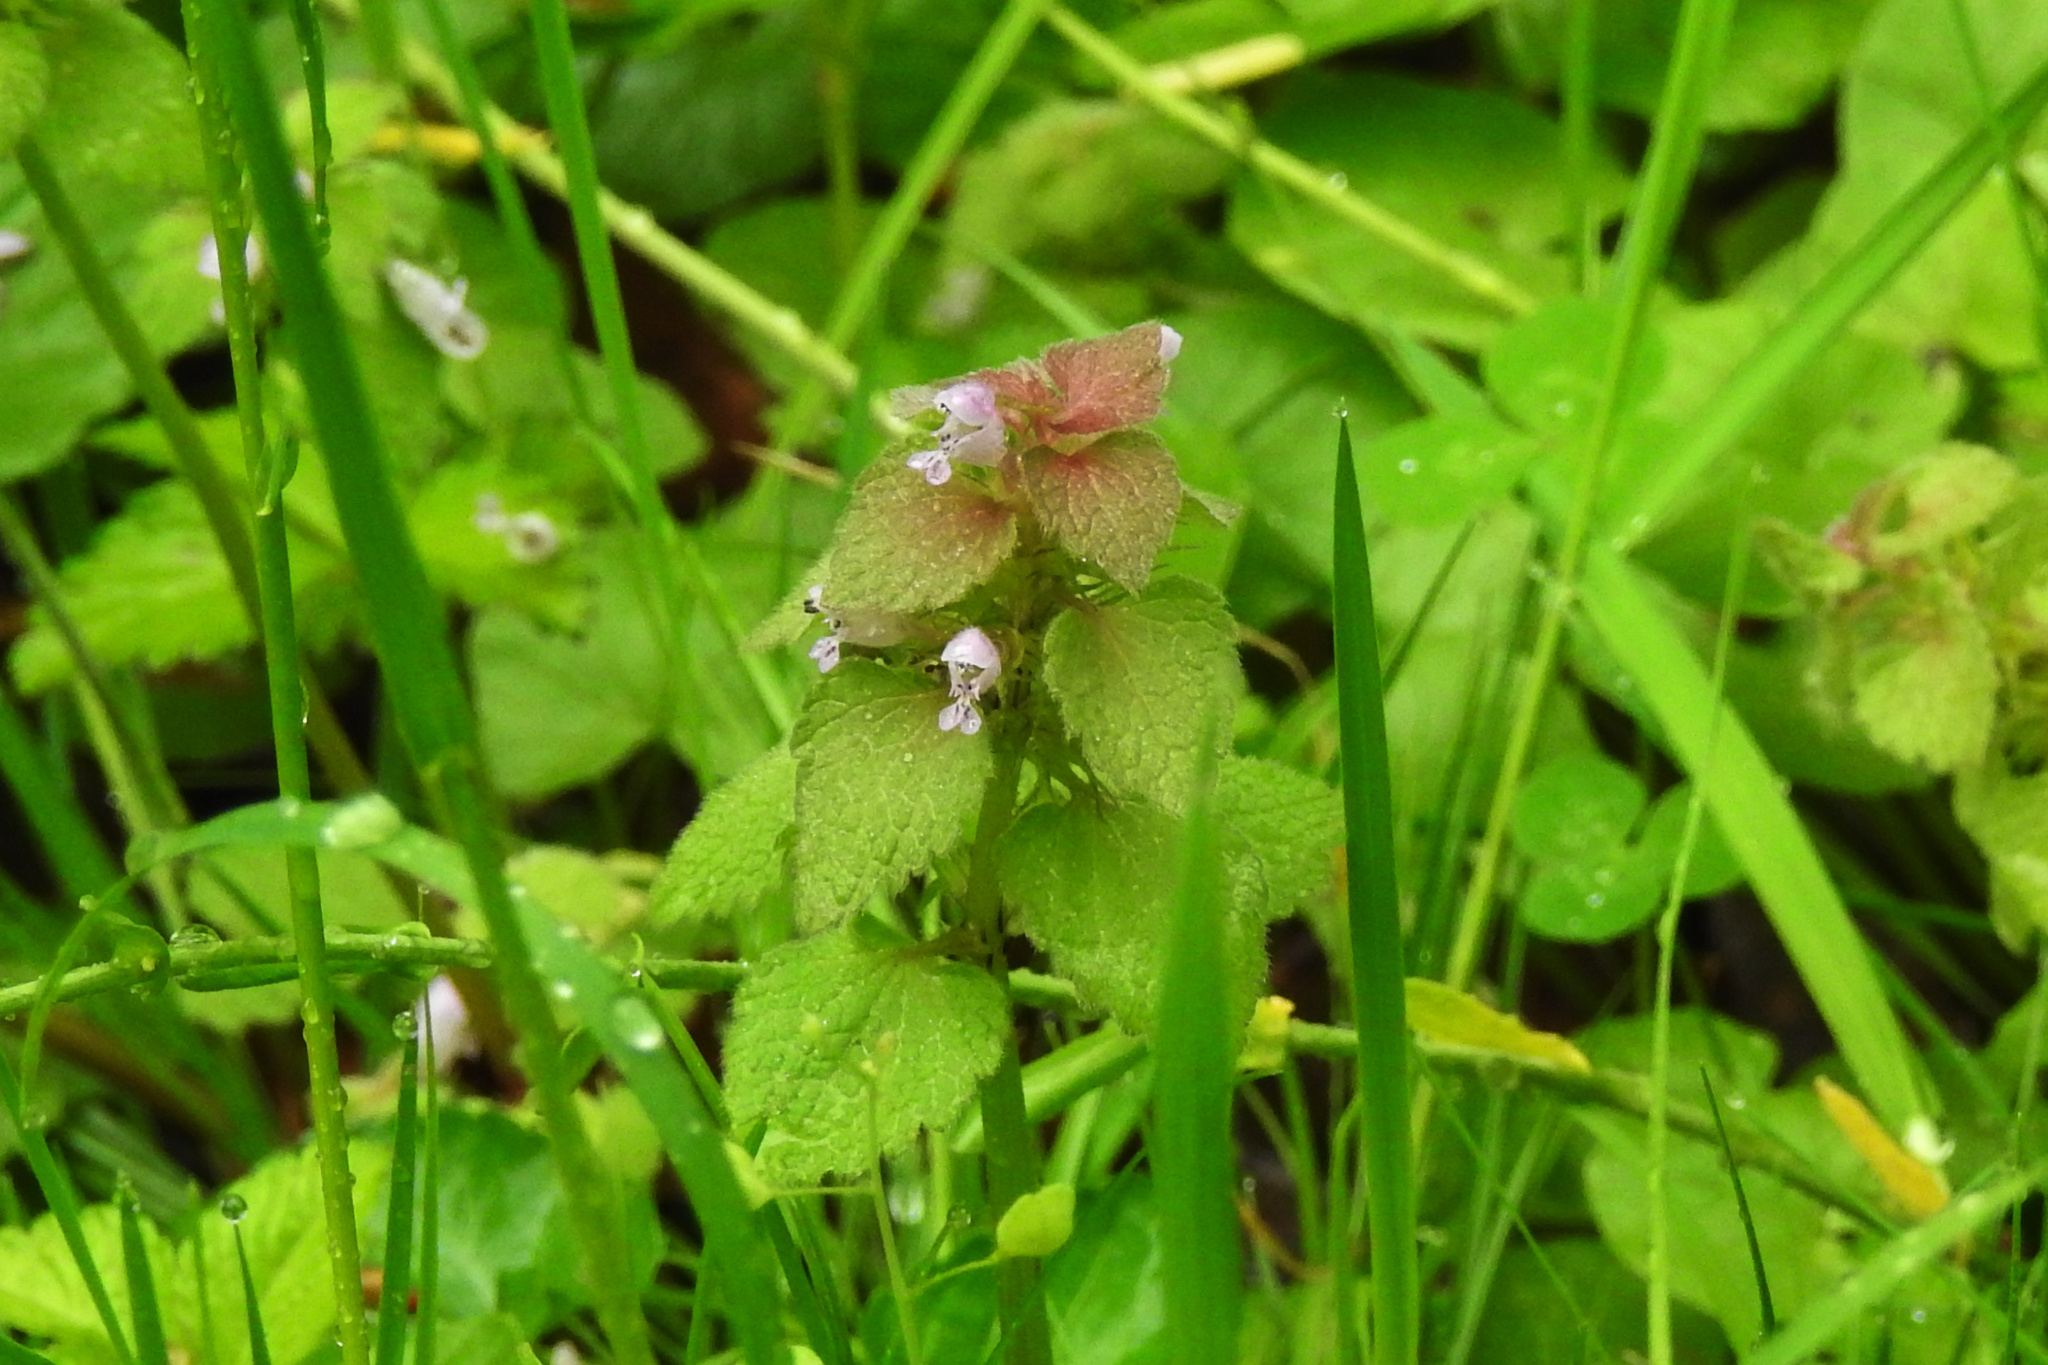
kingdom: Plantae
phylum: Tracheophyta
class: Magnoliopsida
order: Lamiales
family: Lamiaceae
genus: Lamium
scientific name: Lamium purpureum
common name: Red dead-nettle
